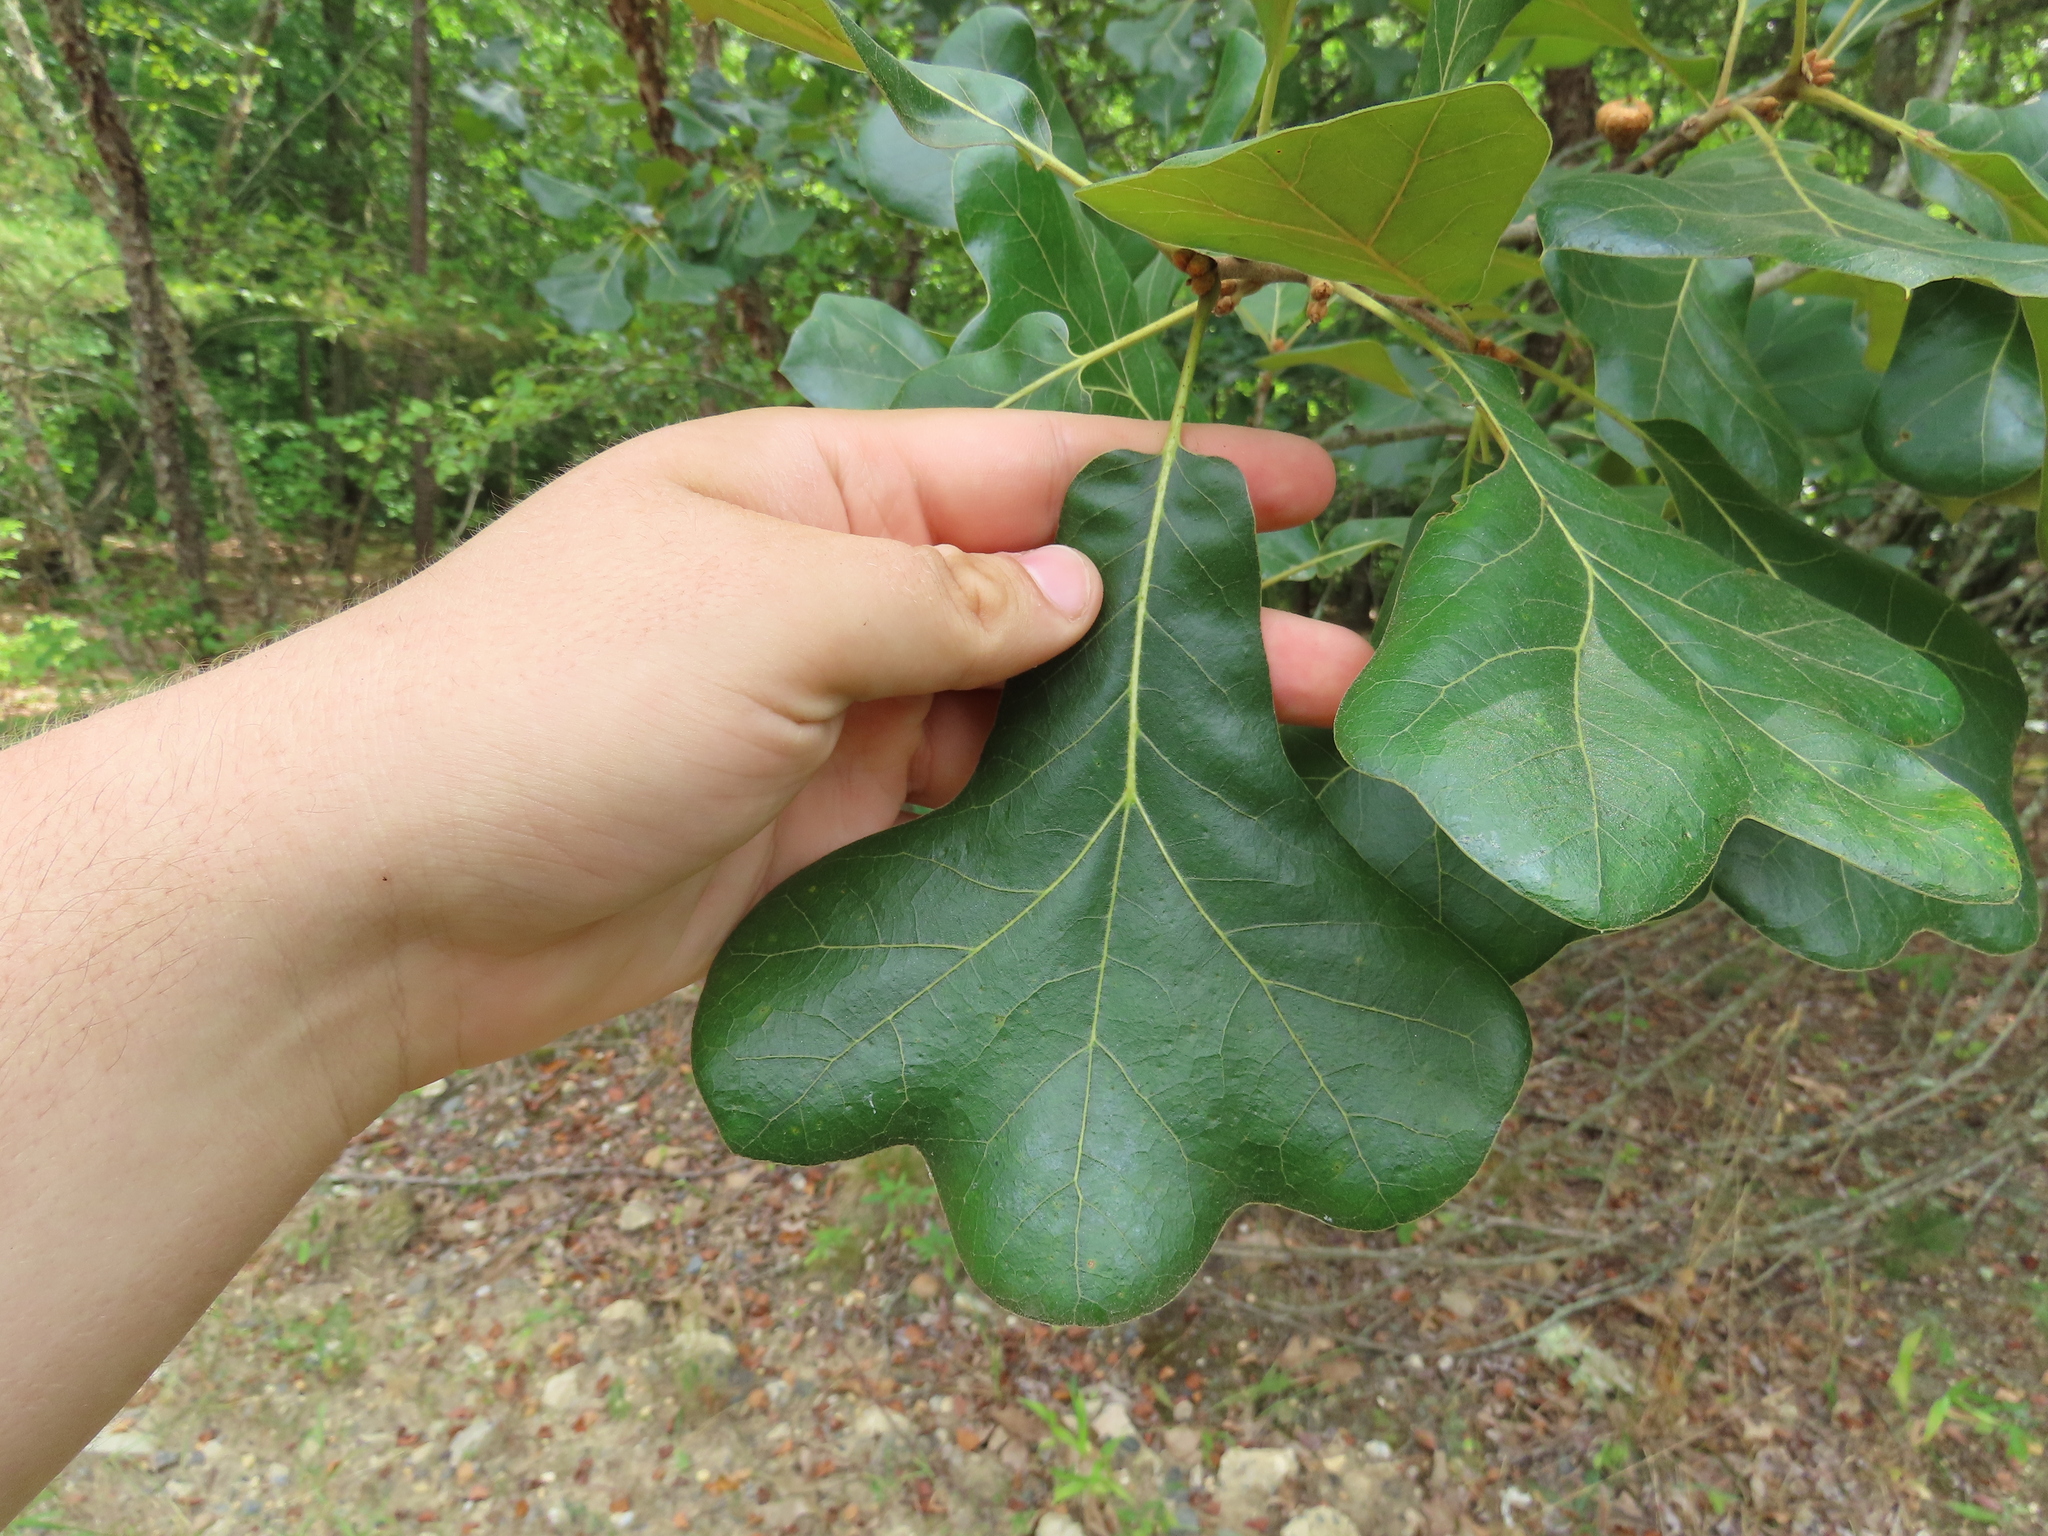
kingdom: Plantae
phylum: Tracheophyta
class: Magnoliopsida
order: Fagales
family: Fagaceae
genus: Quercus
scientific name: Quercus marilandica
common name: Blackjack oak
